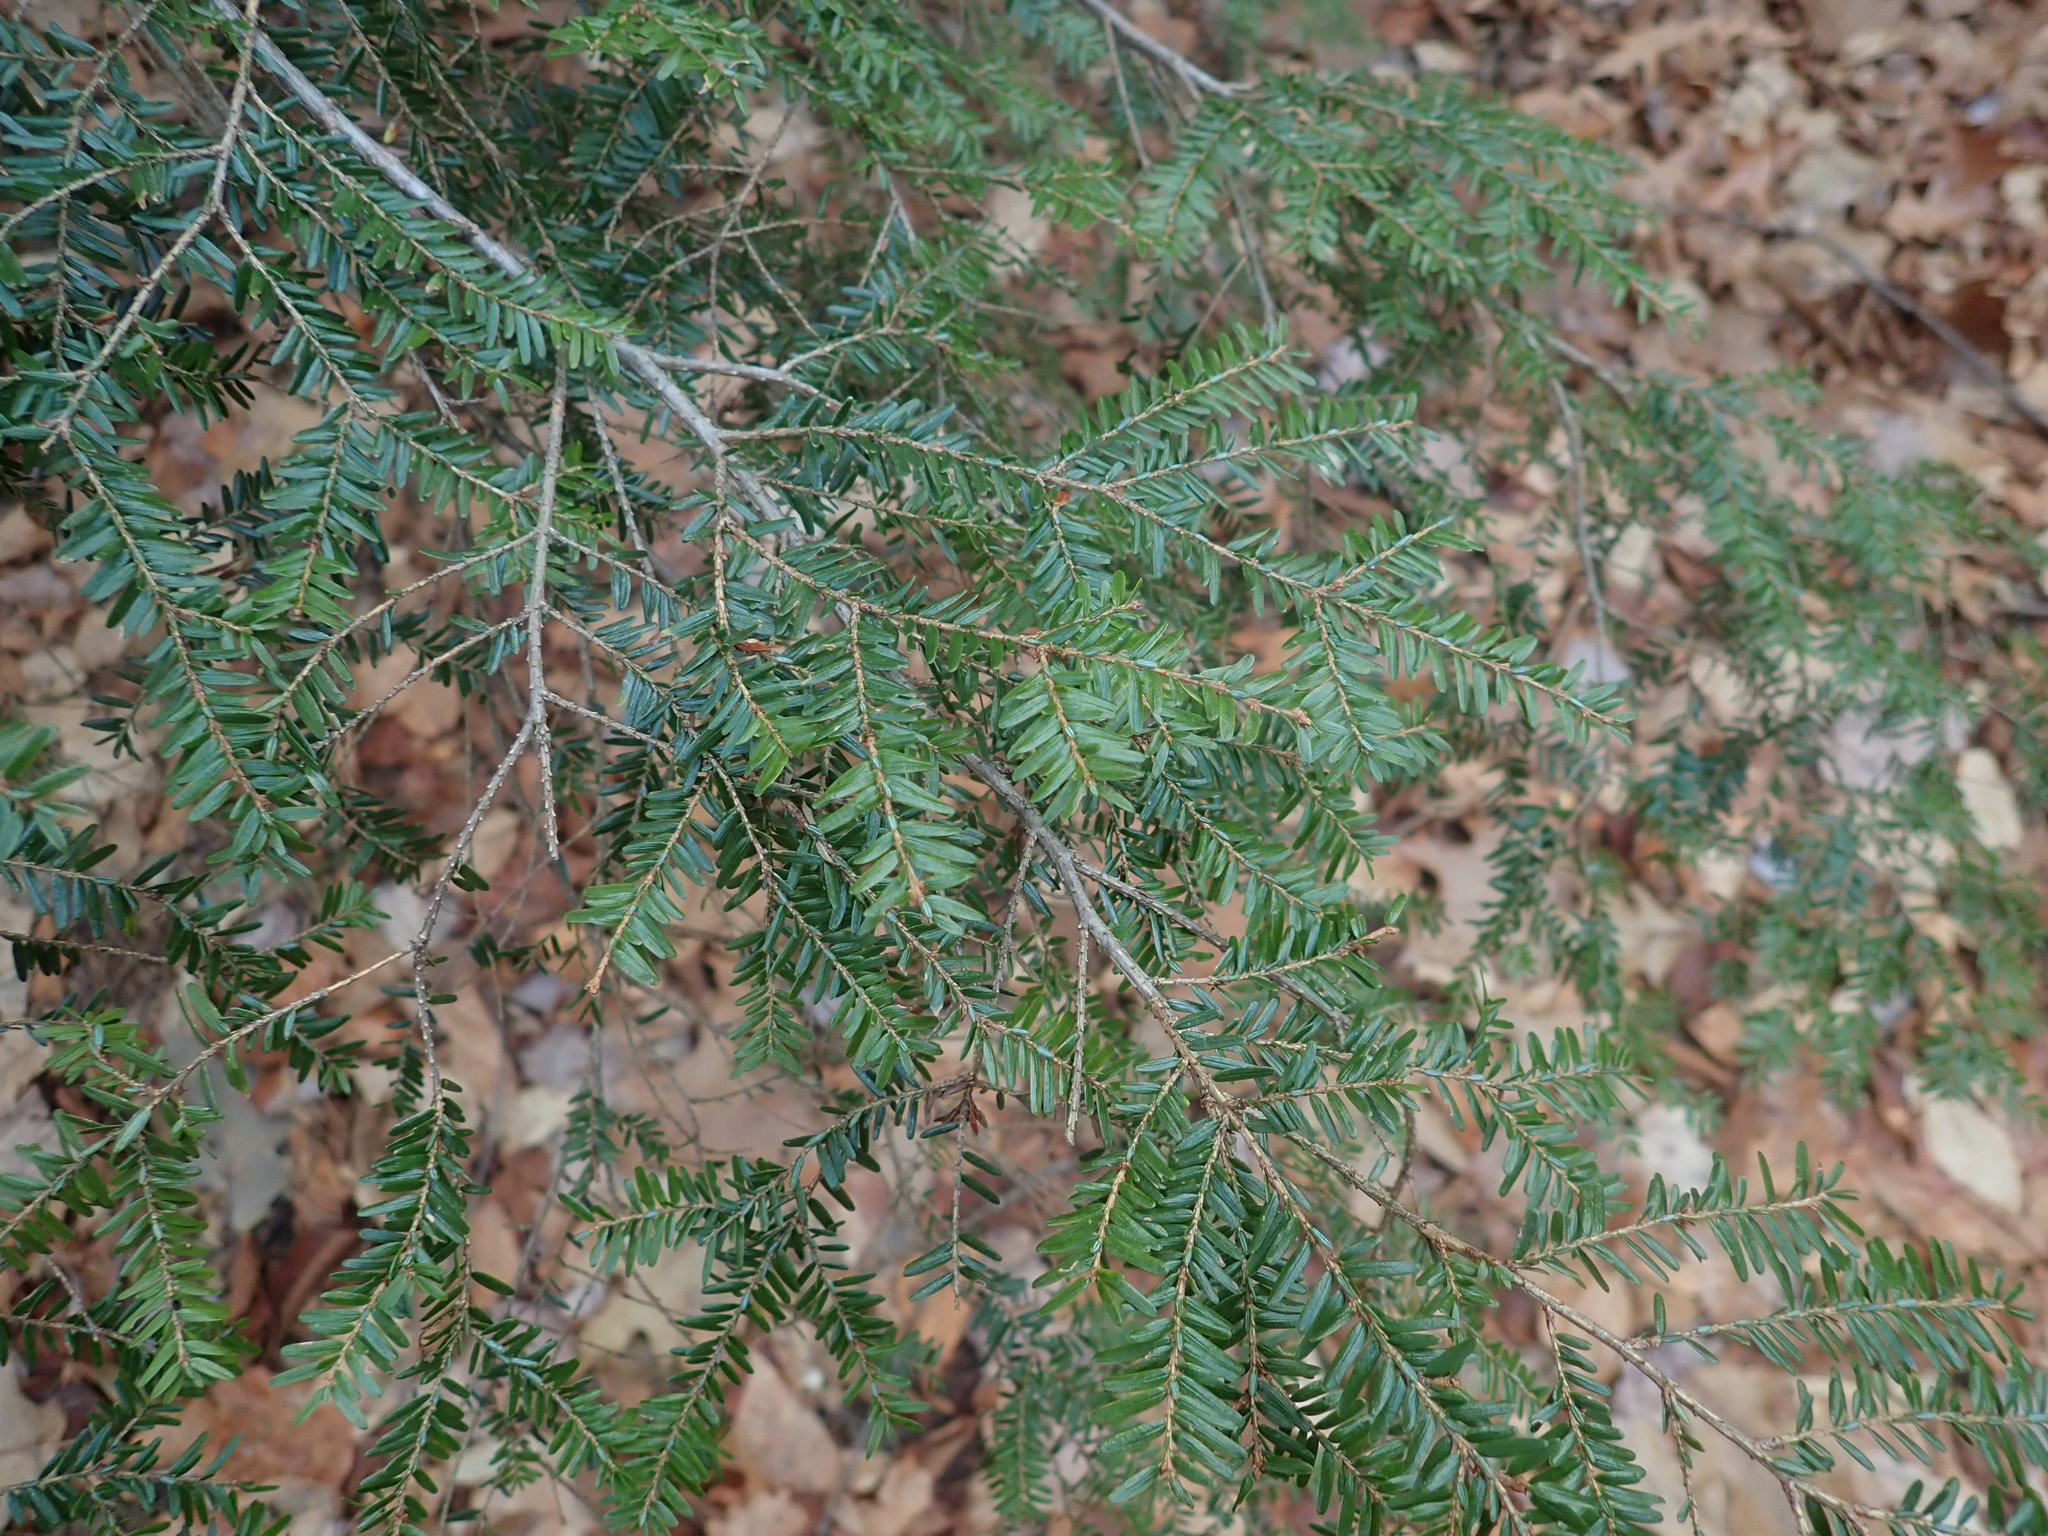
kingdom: Plantae
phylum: Tracheophyta
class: Pinopsida
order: Pinales
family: Pinaceae
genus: Tsuga
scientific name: Tsuga canadensis
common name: Eastern hemlock
